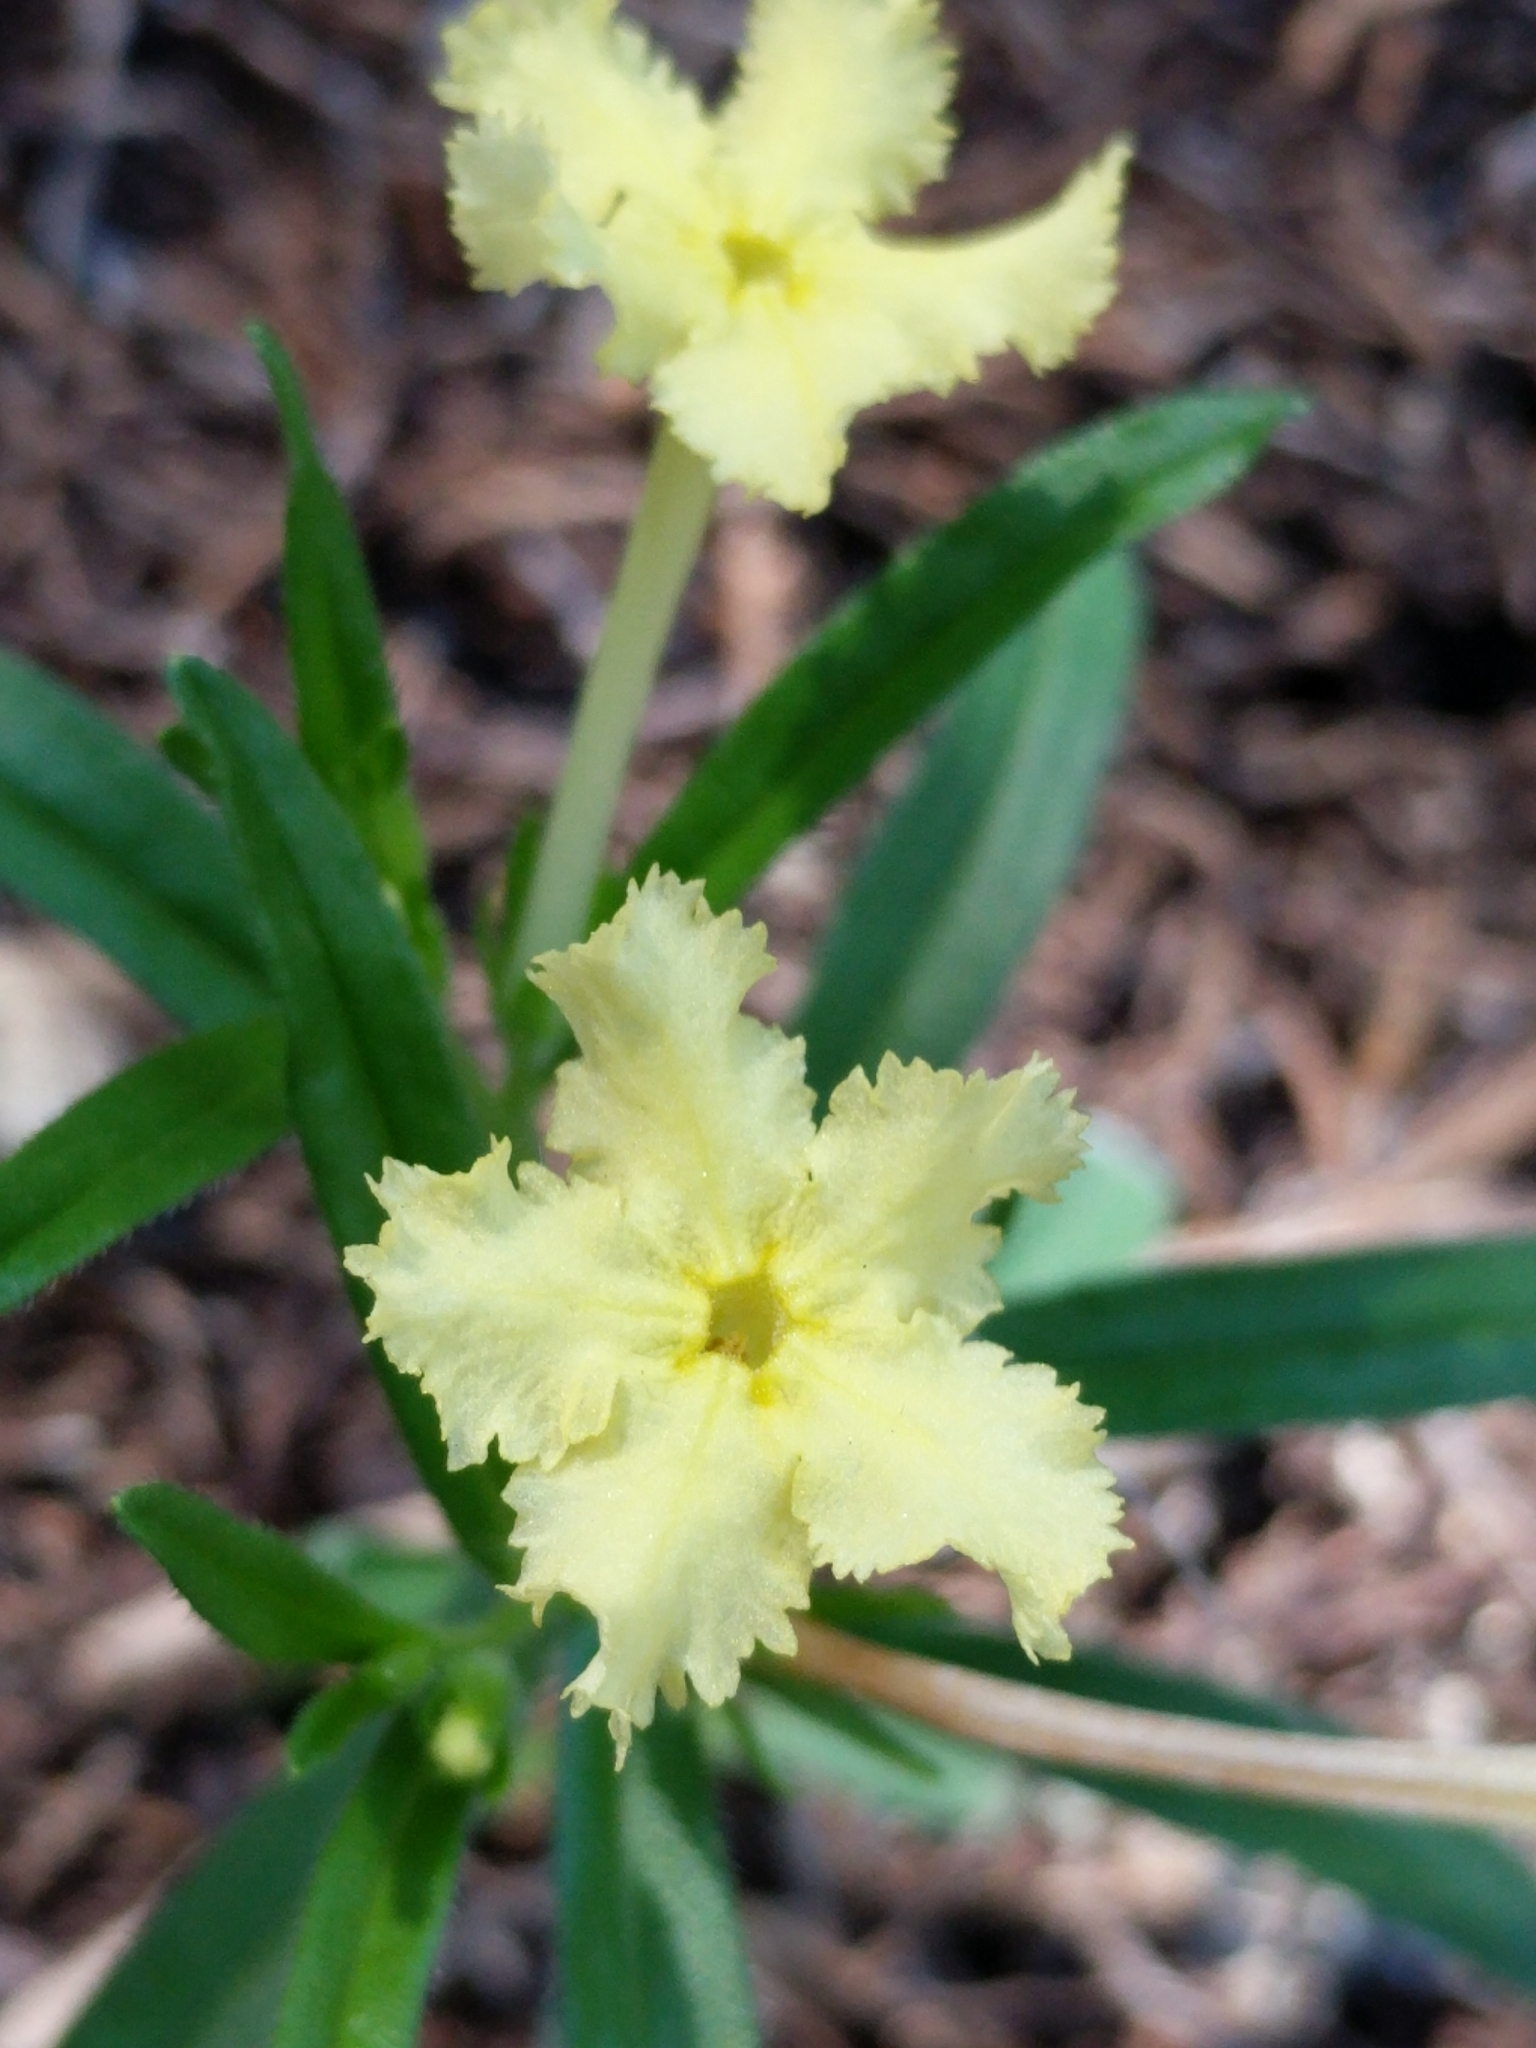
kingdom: Plantae
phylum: Tracheophyta
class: Magnoliopsida
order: Boraginales
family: Boraginaceae
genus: Lithospermum
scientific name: Lithospermum incisum
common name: Fringed gromwell
